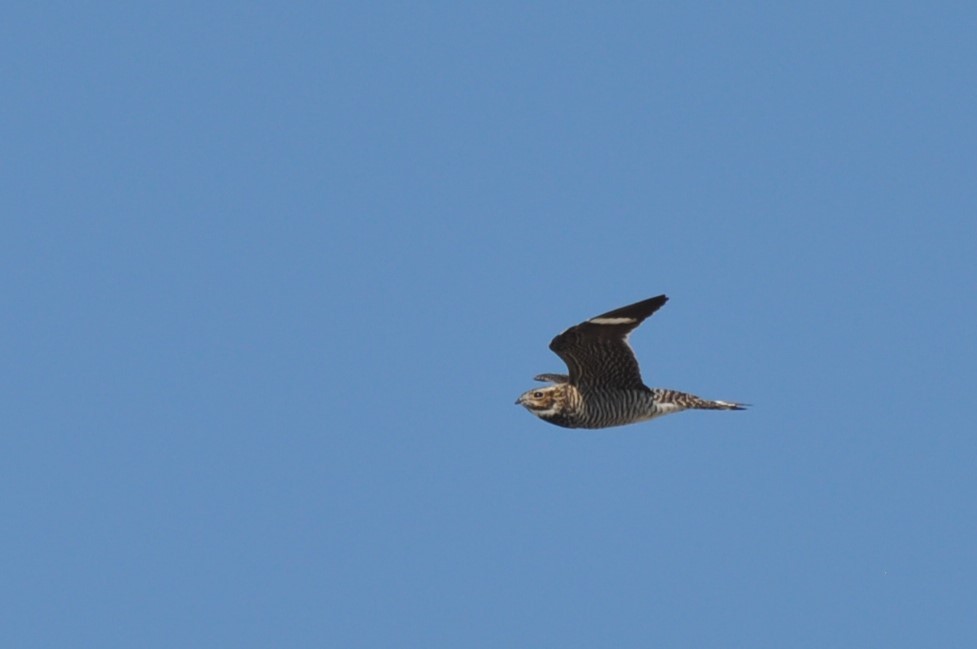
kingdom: Animalia
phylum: Chordata
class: Aves
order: Caprimulgiformes
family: Caprimulgidae
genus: Chordeiles
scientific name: Chordeiles minor
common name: Common nighthawk
